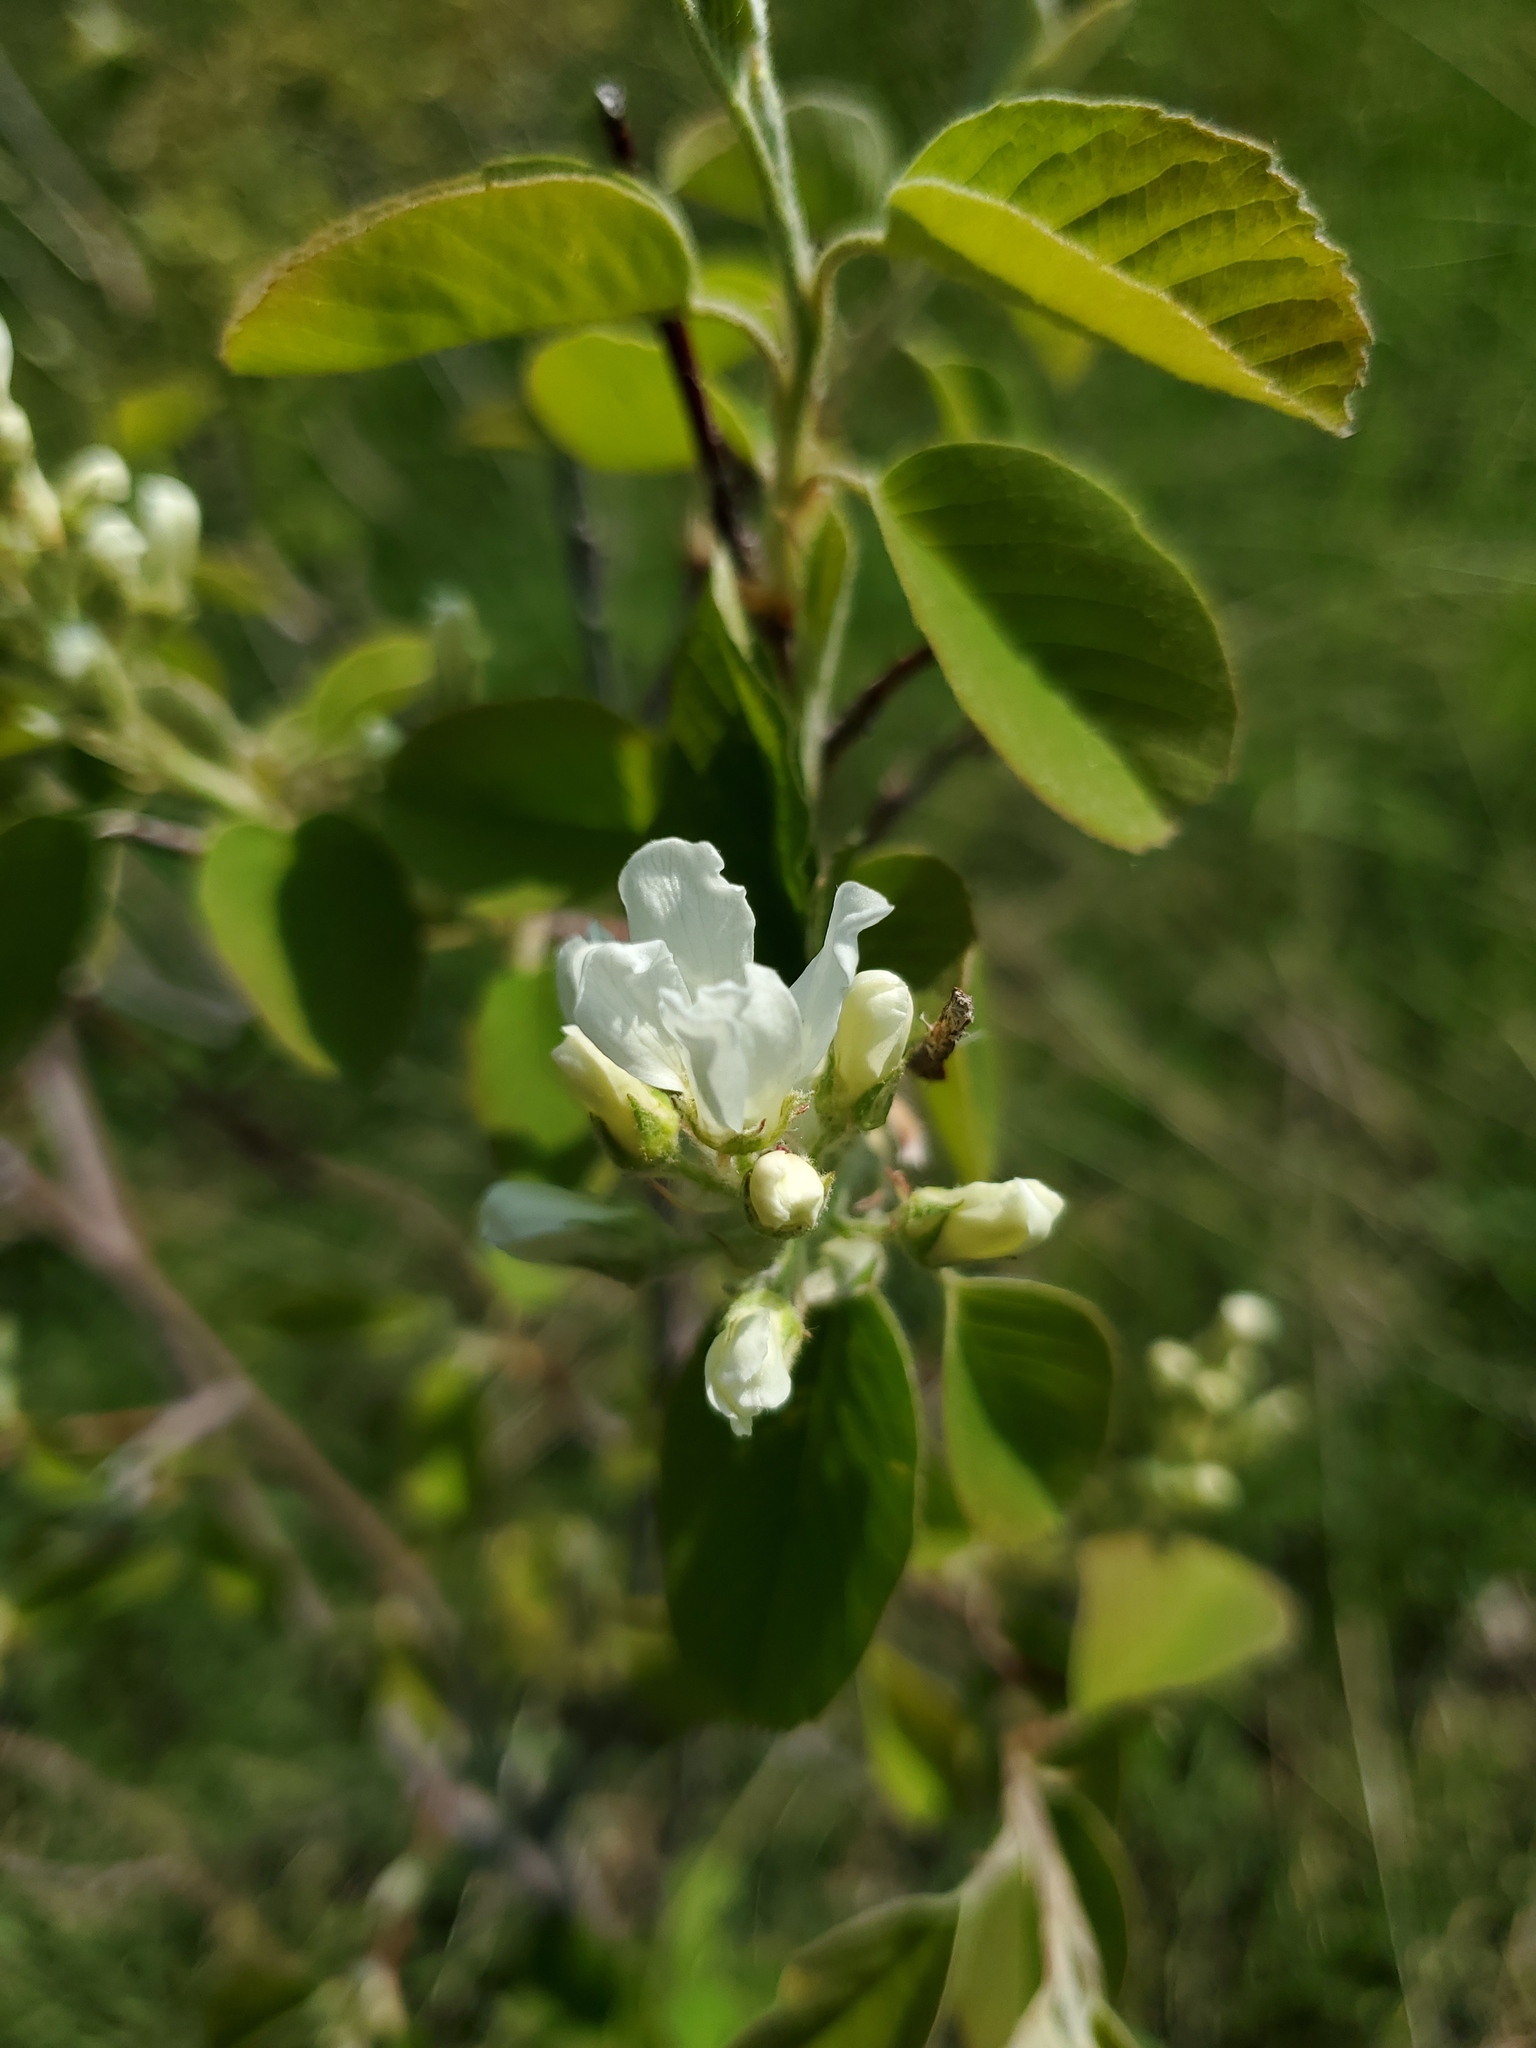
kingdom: Plantae
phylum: Tracheophyta
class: Magnoliopsida
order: Rosales
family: Rosaceae
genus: Amelanchier
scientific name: Amelanchier alnifolia
